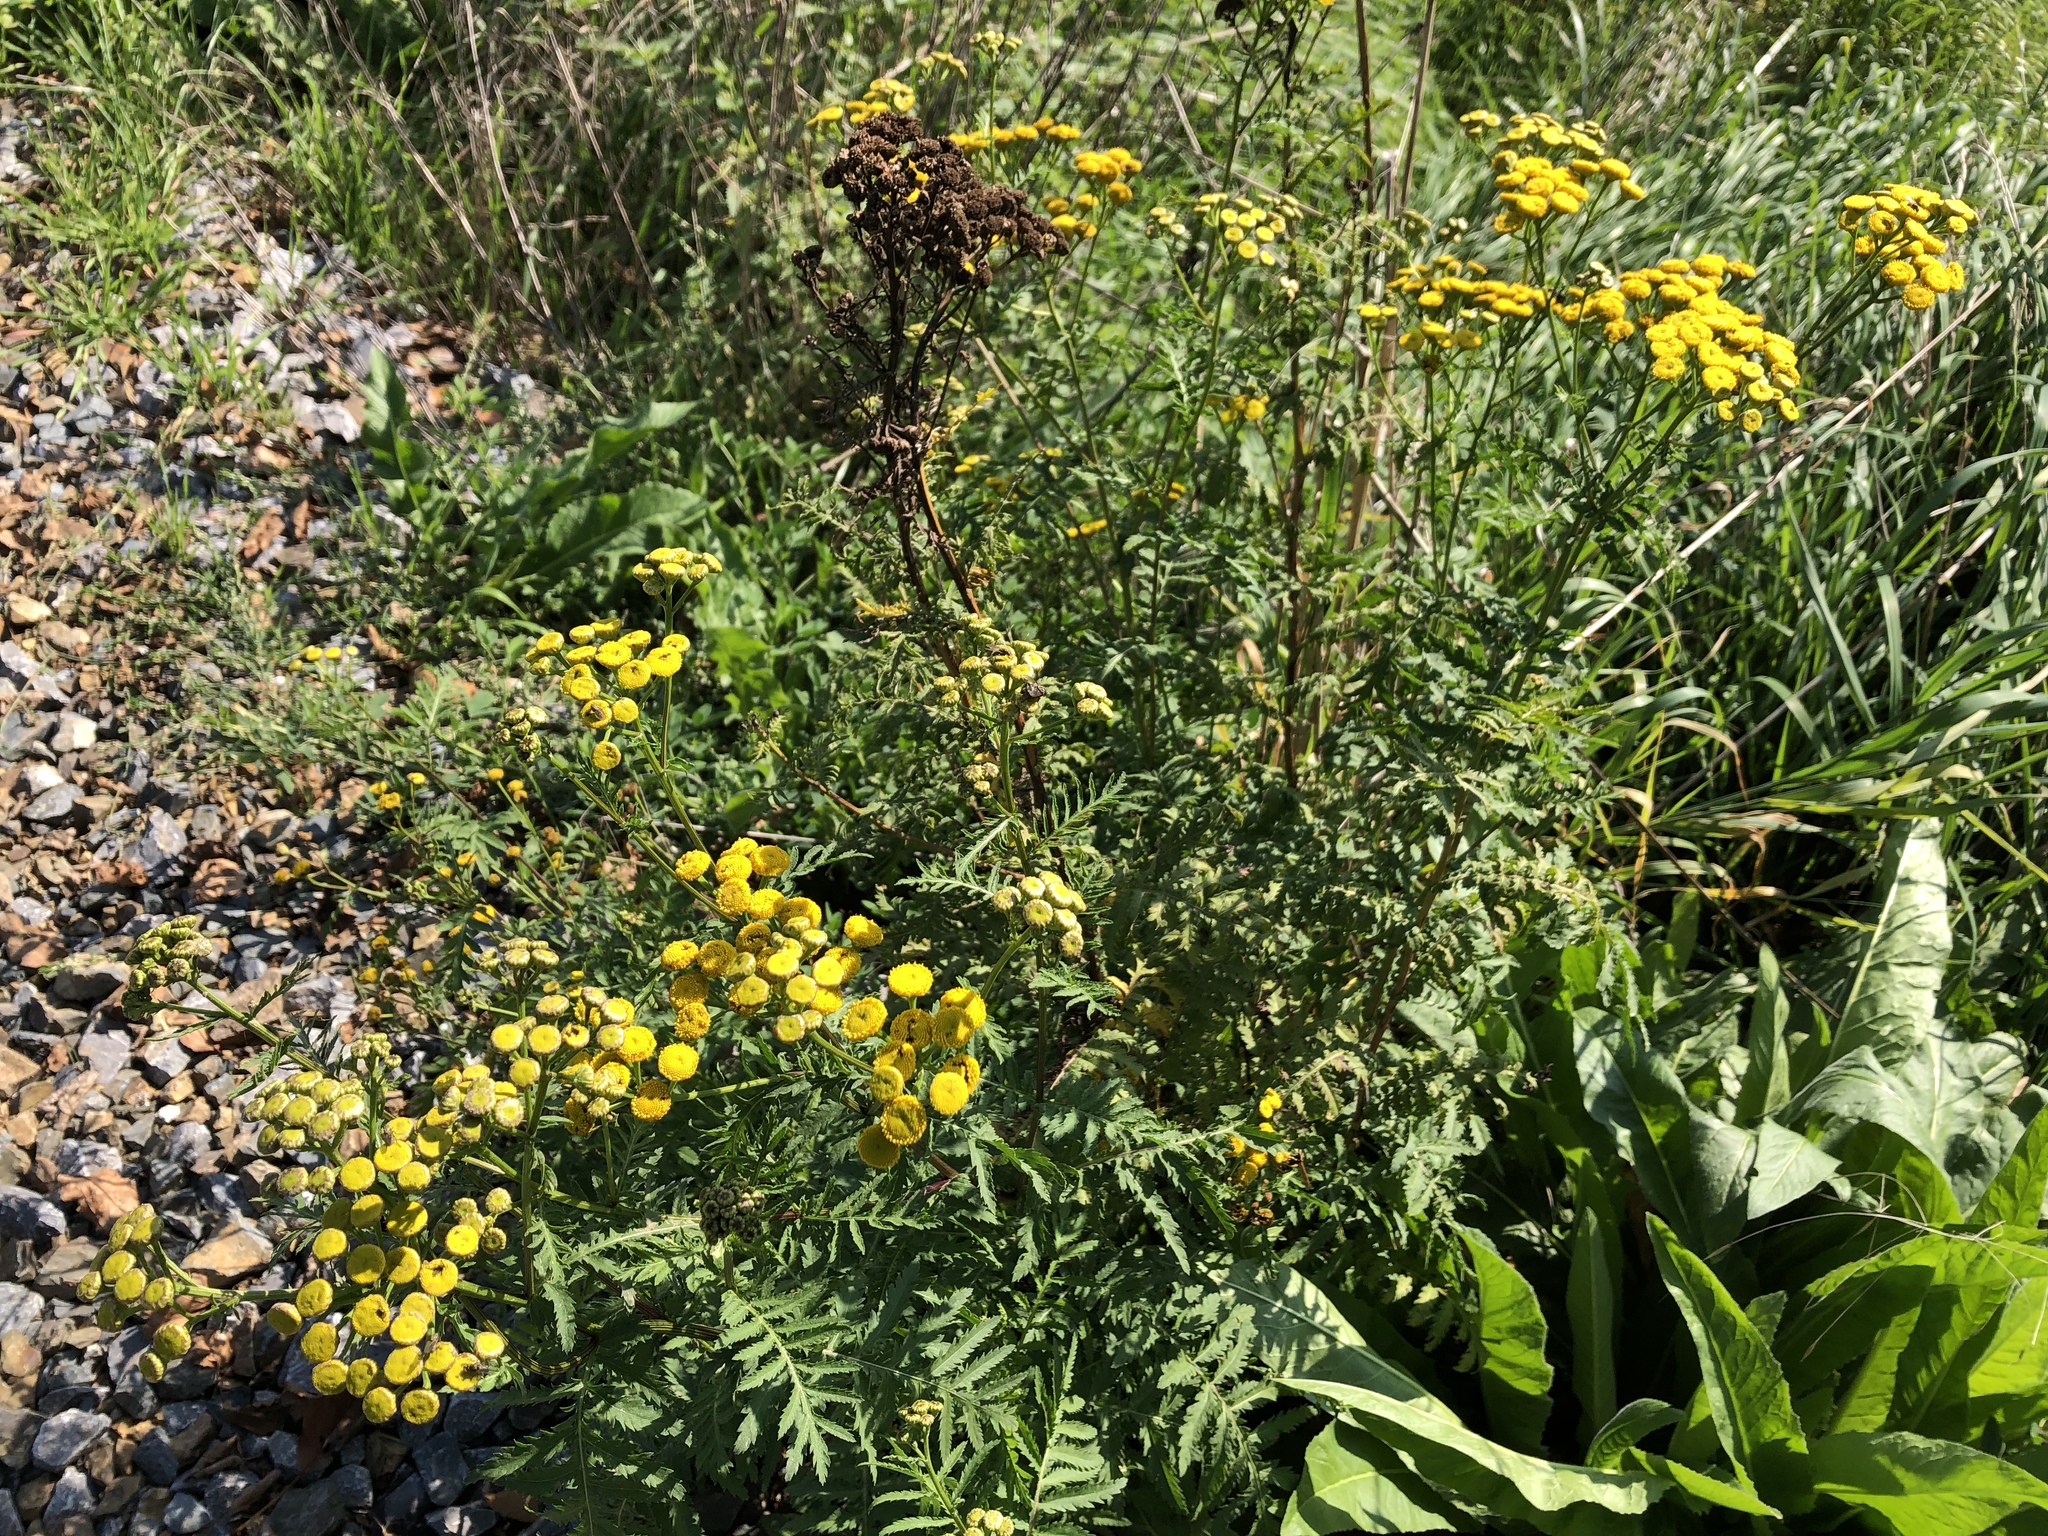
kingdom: Plantae
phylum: Tracheophyta
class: Magnoliopsida
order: Asterales
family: Asteraceae
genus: Tanacetum
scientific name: Tanacetum vulgare
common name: Common tansy
